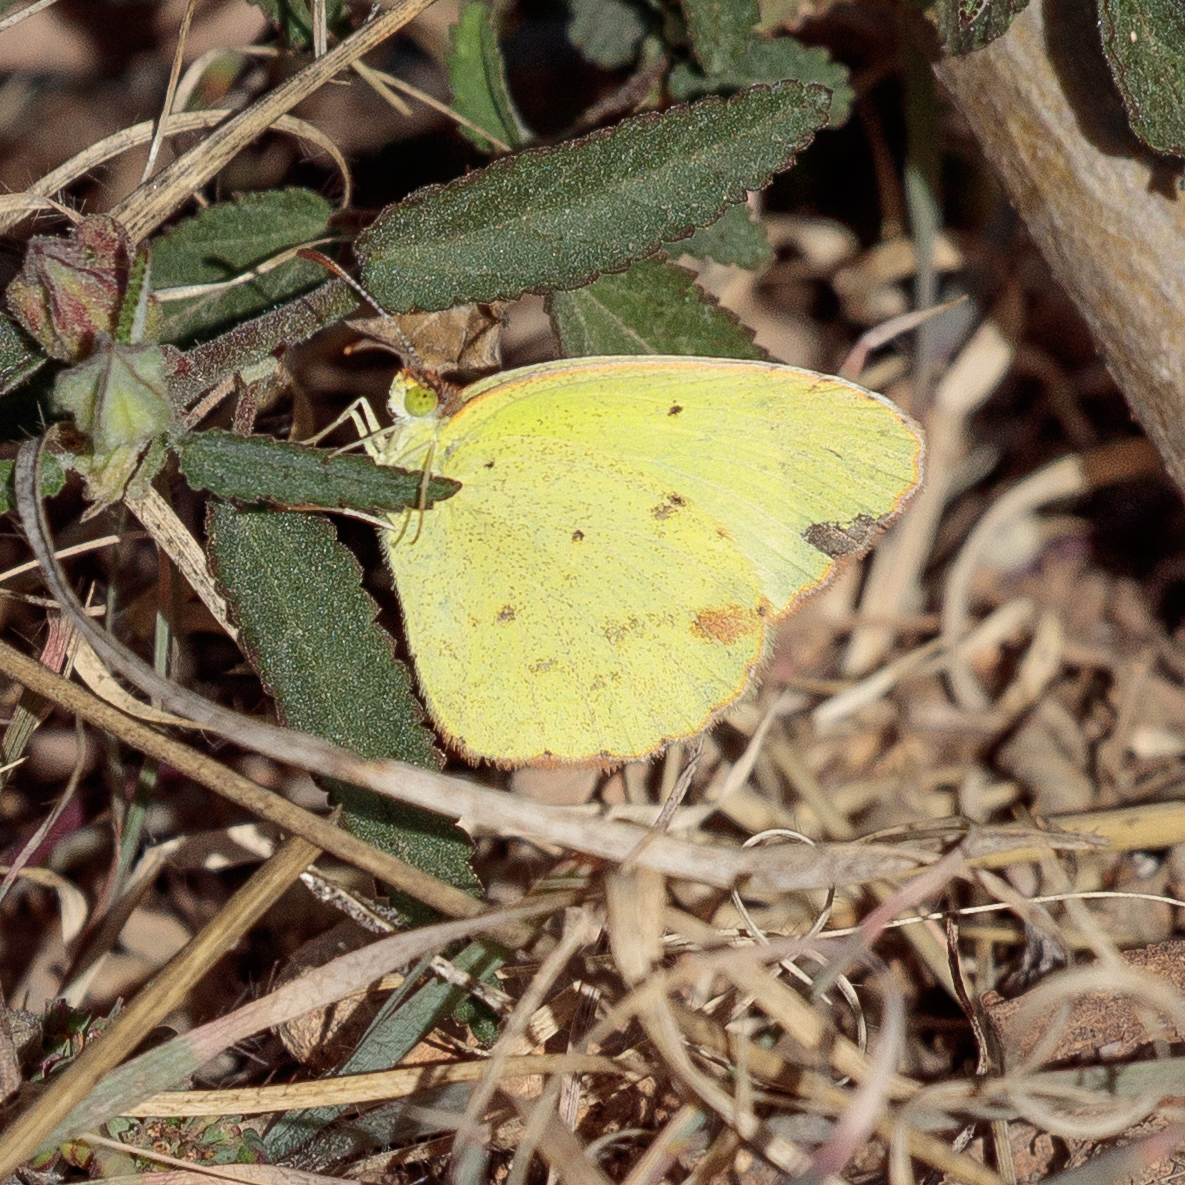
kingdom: Animalia
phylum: Arthropoda
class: Insecta
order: Lepidoptera
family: Pieridae
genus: Pyrisitia
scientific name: Pyrisitia lisa
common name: Little yellow
